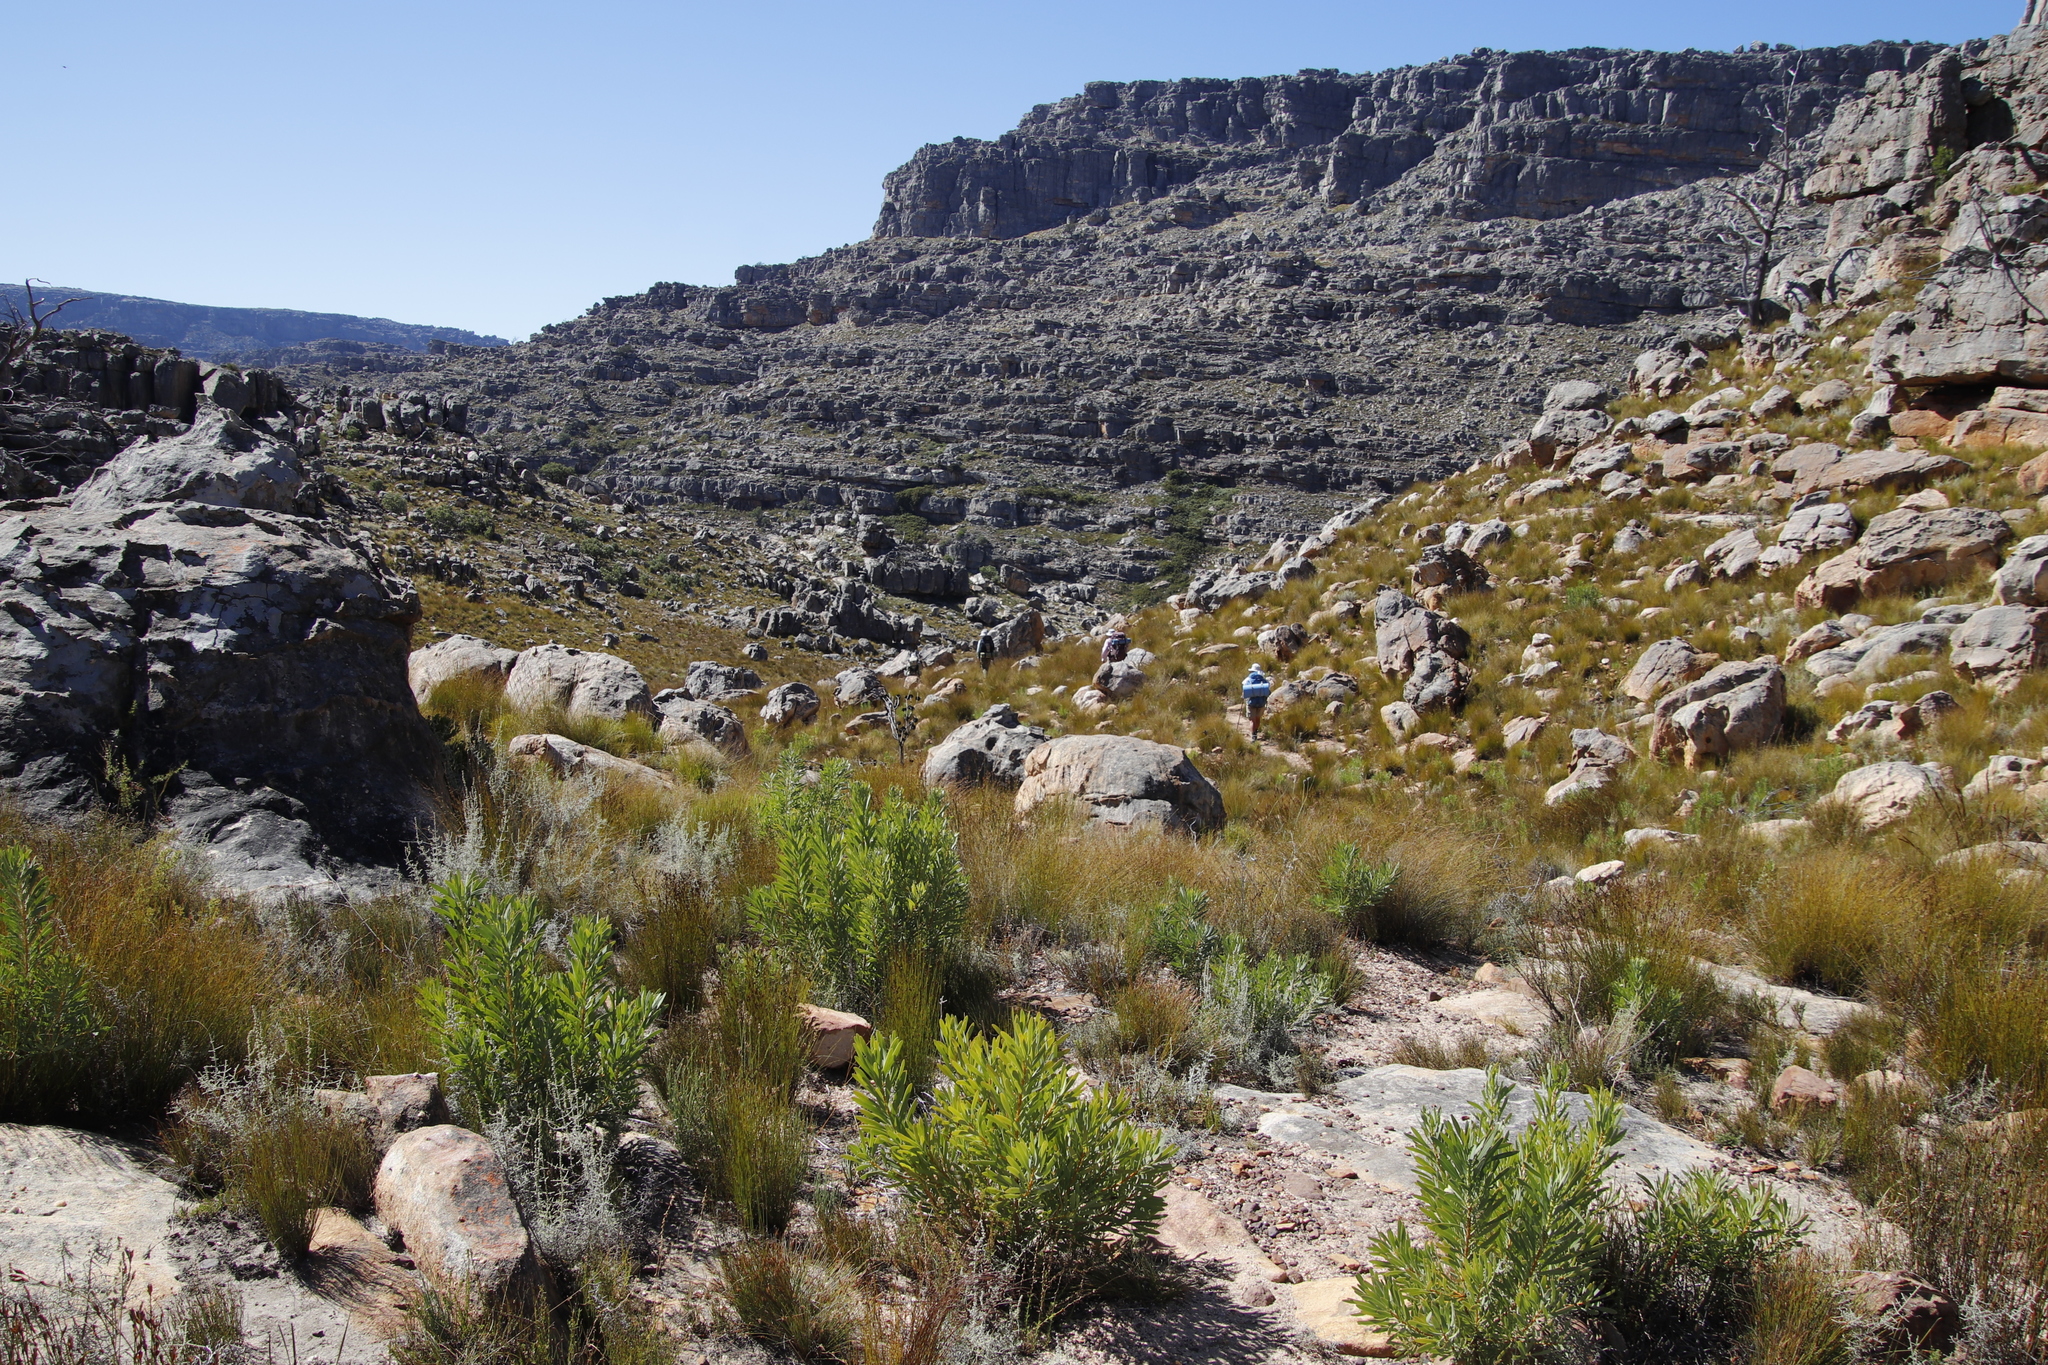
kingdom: Plantae
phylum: Tracheophyta
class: Magnoliopsida
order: Proteales
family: Proteaceae
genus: Protea
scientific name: Protea repens
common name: Sugarbush
